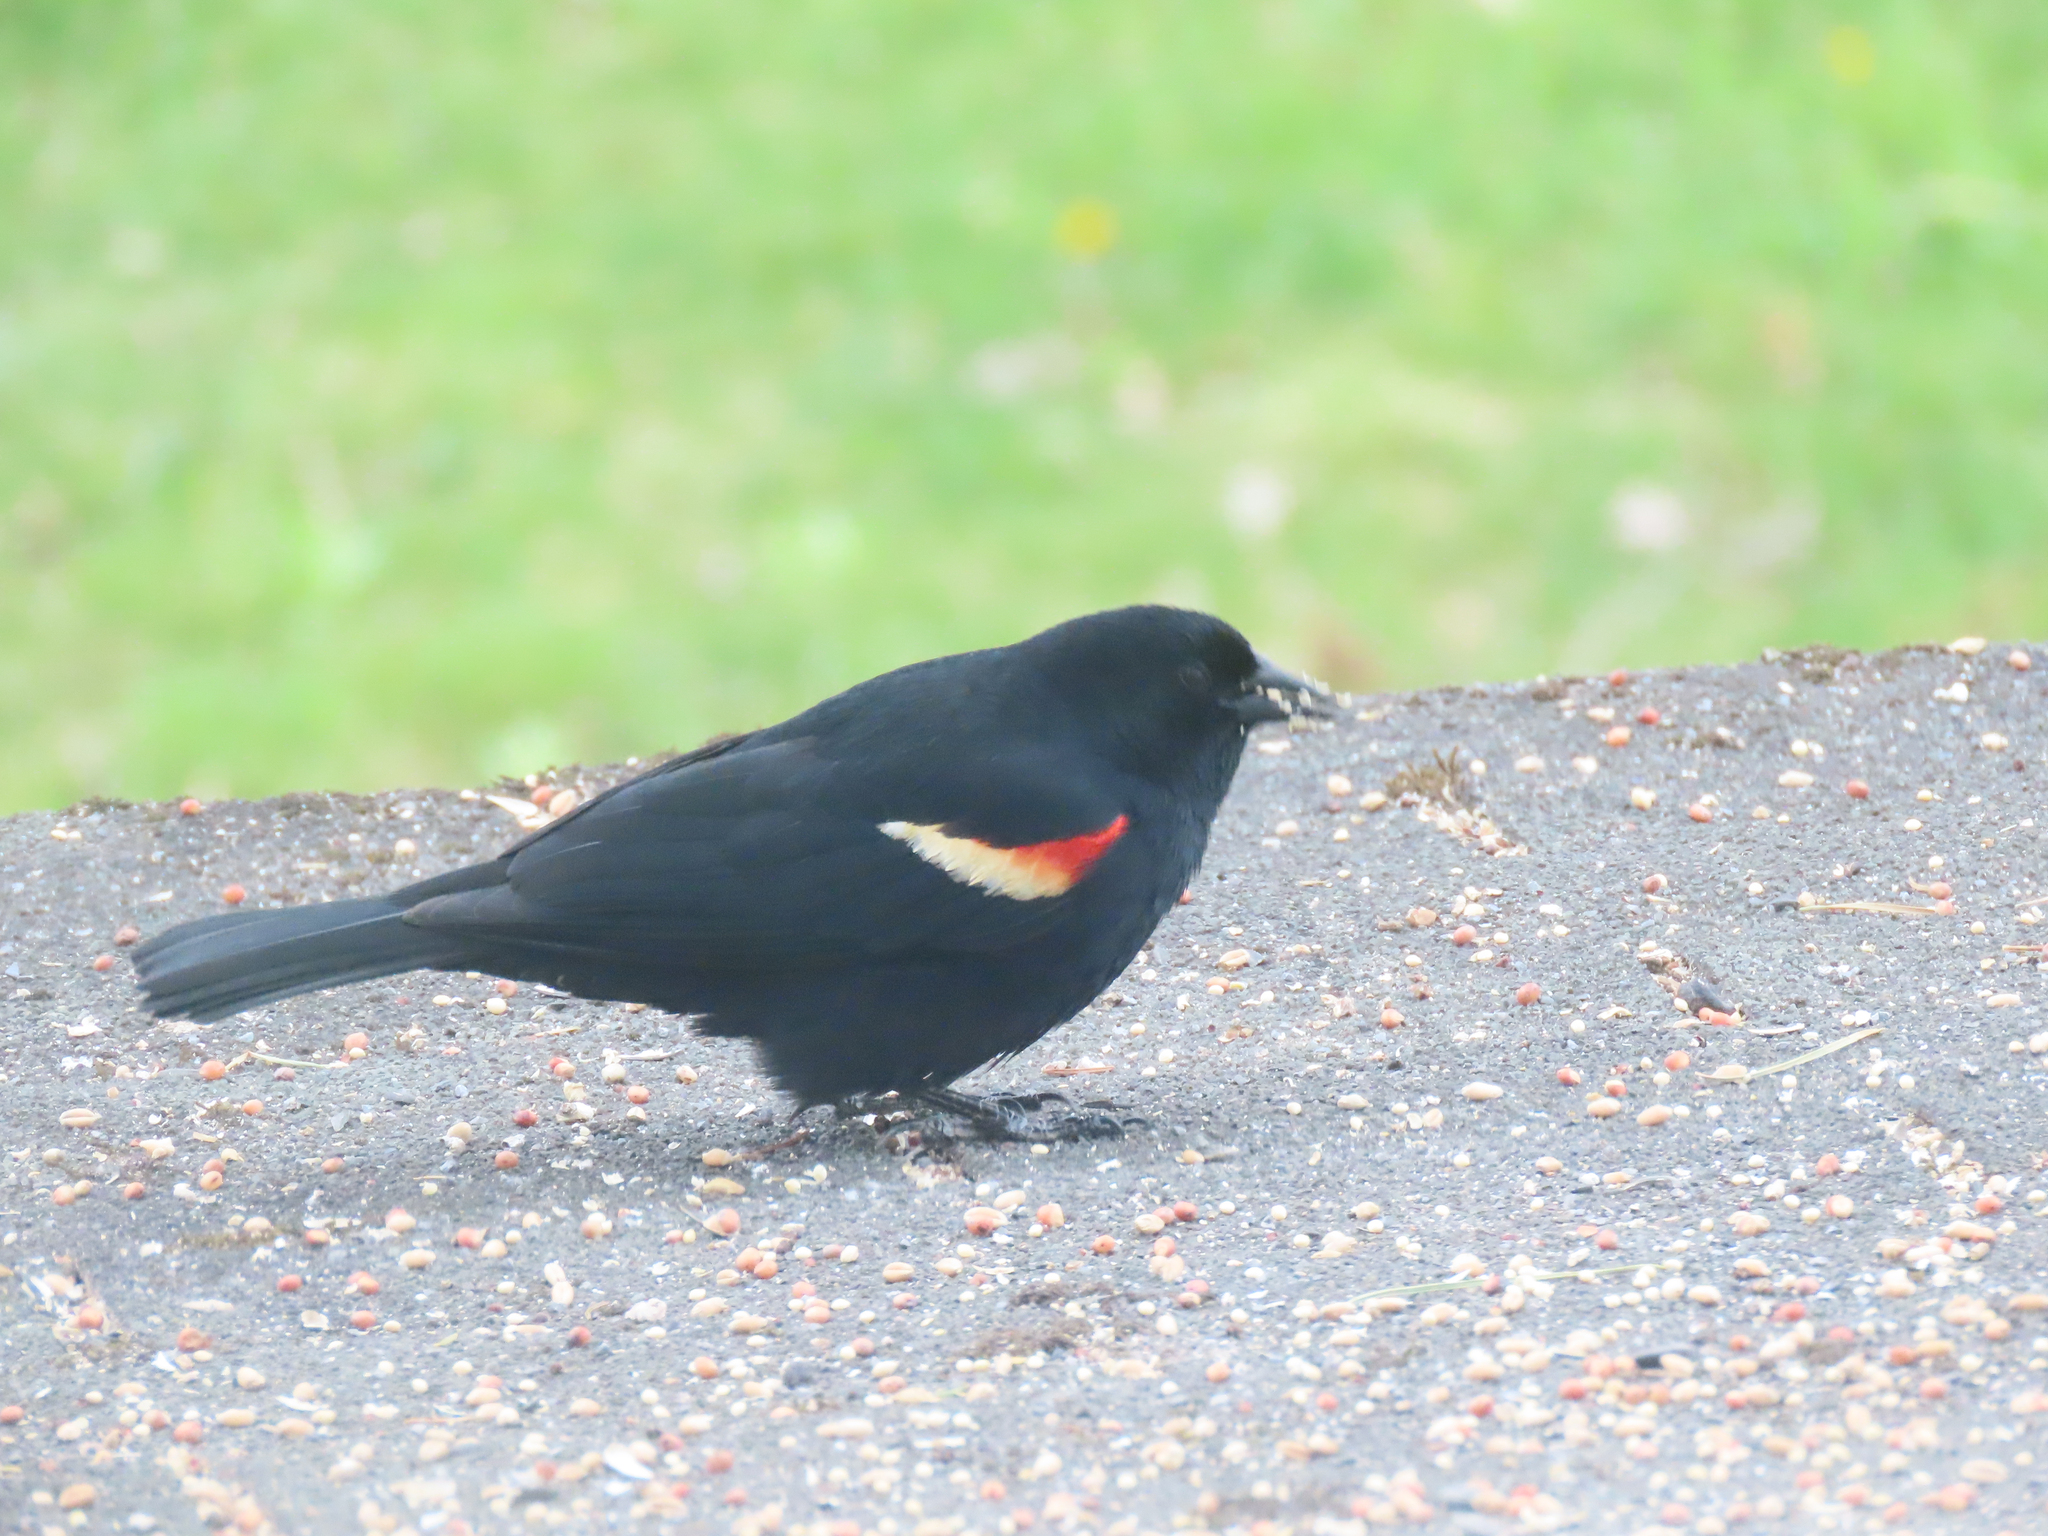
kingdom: Animalia
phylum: Chordata
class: Aves
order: Passeriformes
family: Icteridae
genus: Agelaius
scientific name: Agelaius phoeniceus
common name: Red-winged blackbird
